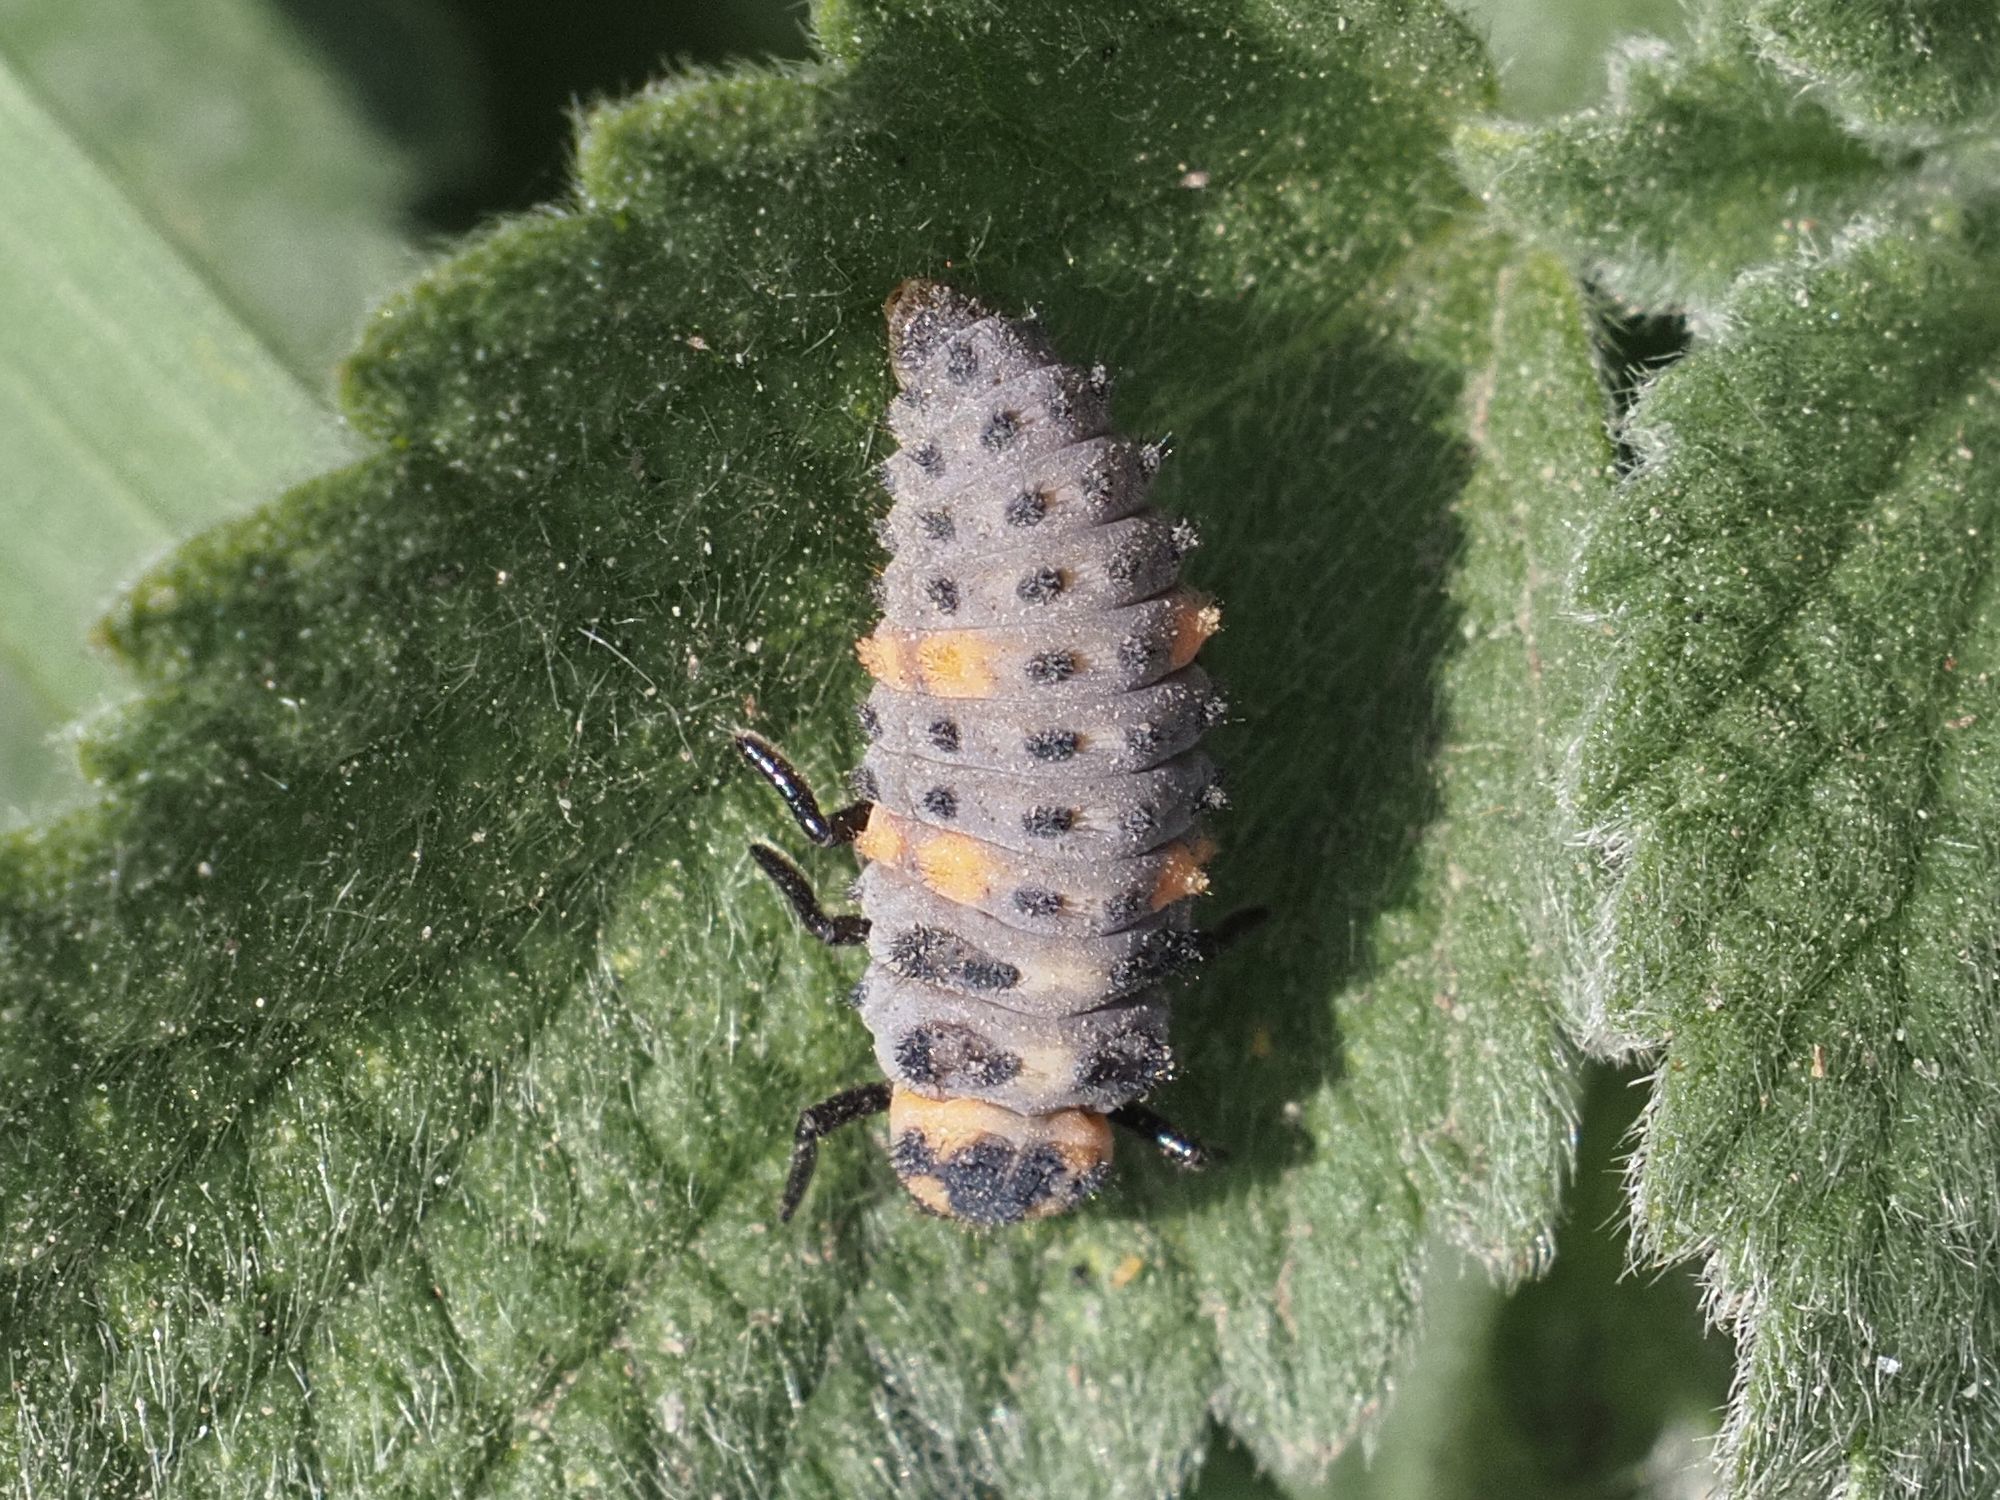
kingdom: Animalia
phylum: Arthropoda
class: Insecta
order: Coleoptera
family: Coccinellidae
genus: Coccinella
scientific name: Coccinella septempunctata
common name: Sevenspotted lady beetle
